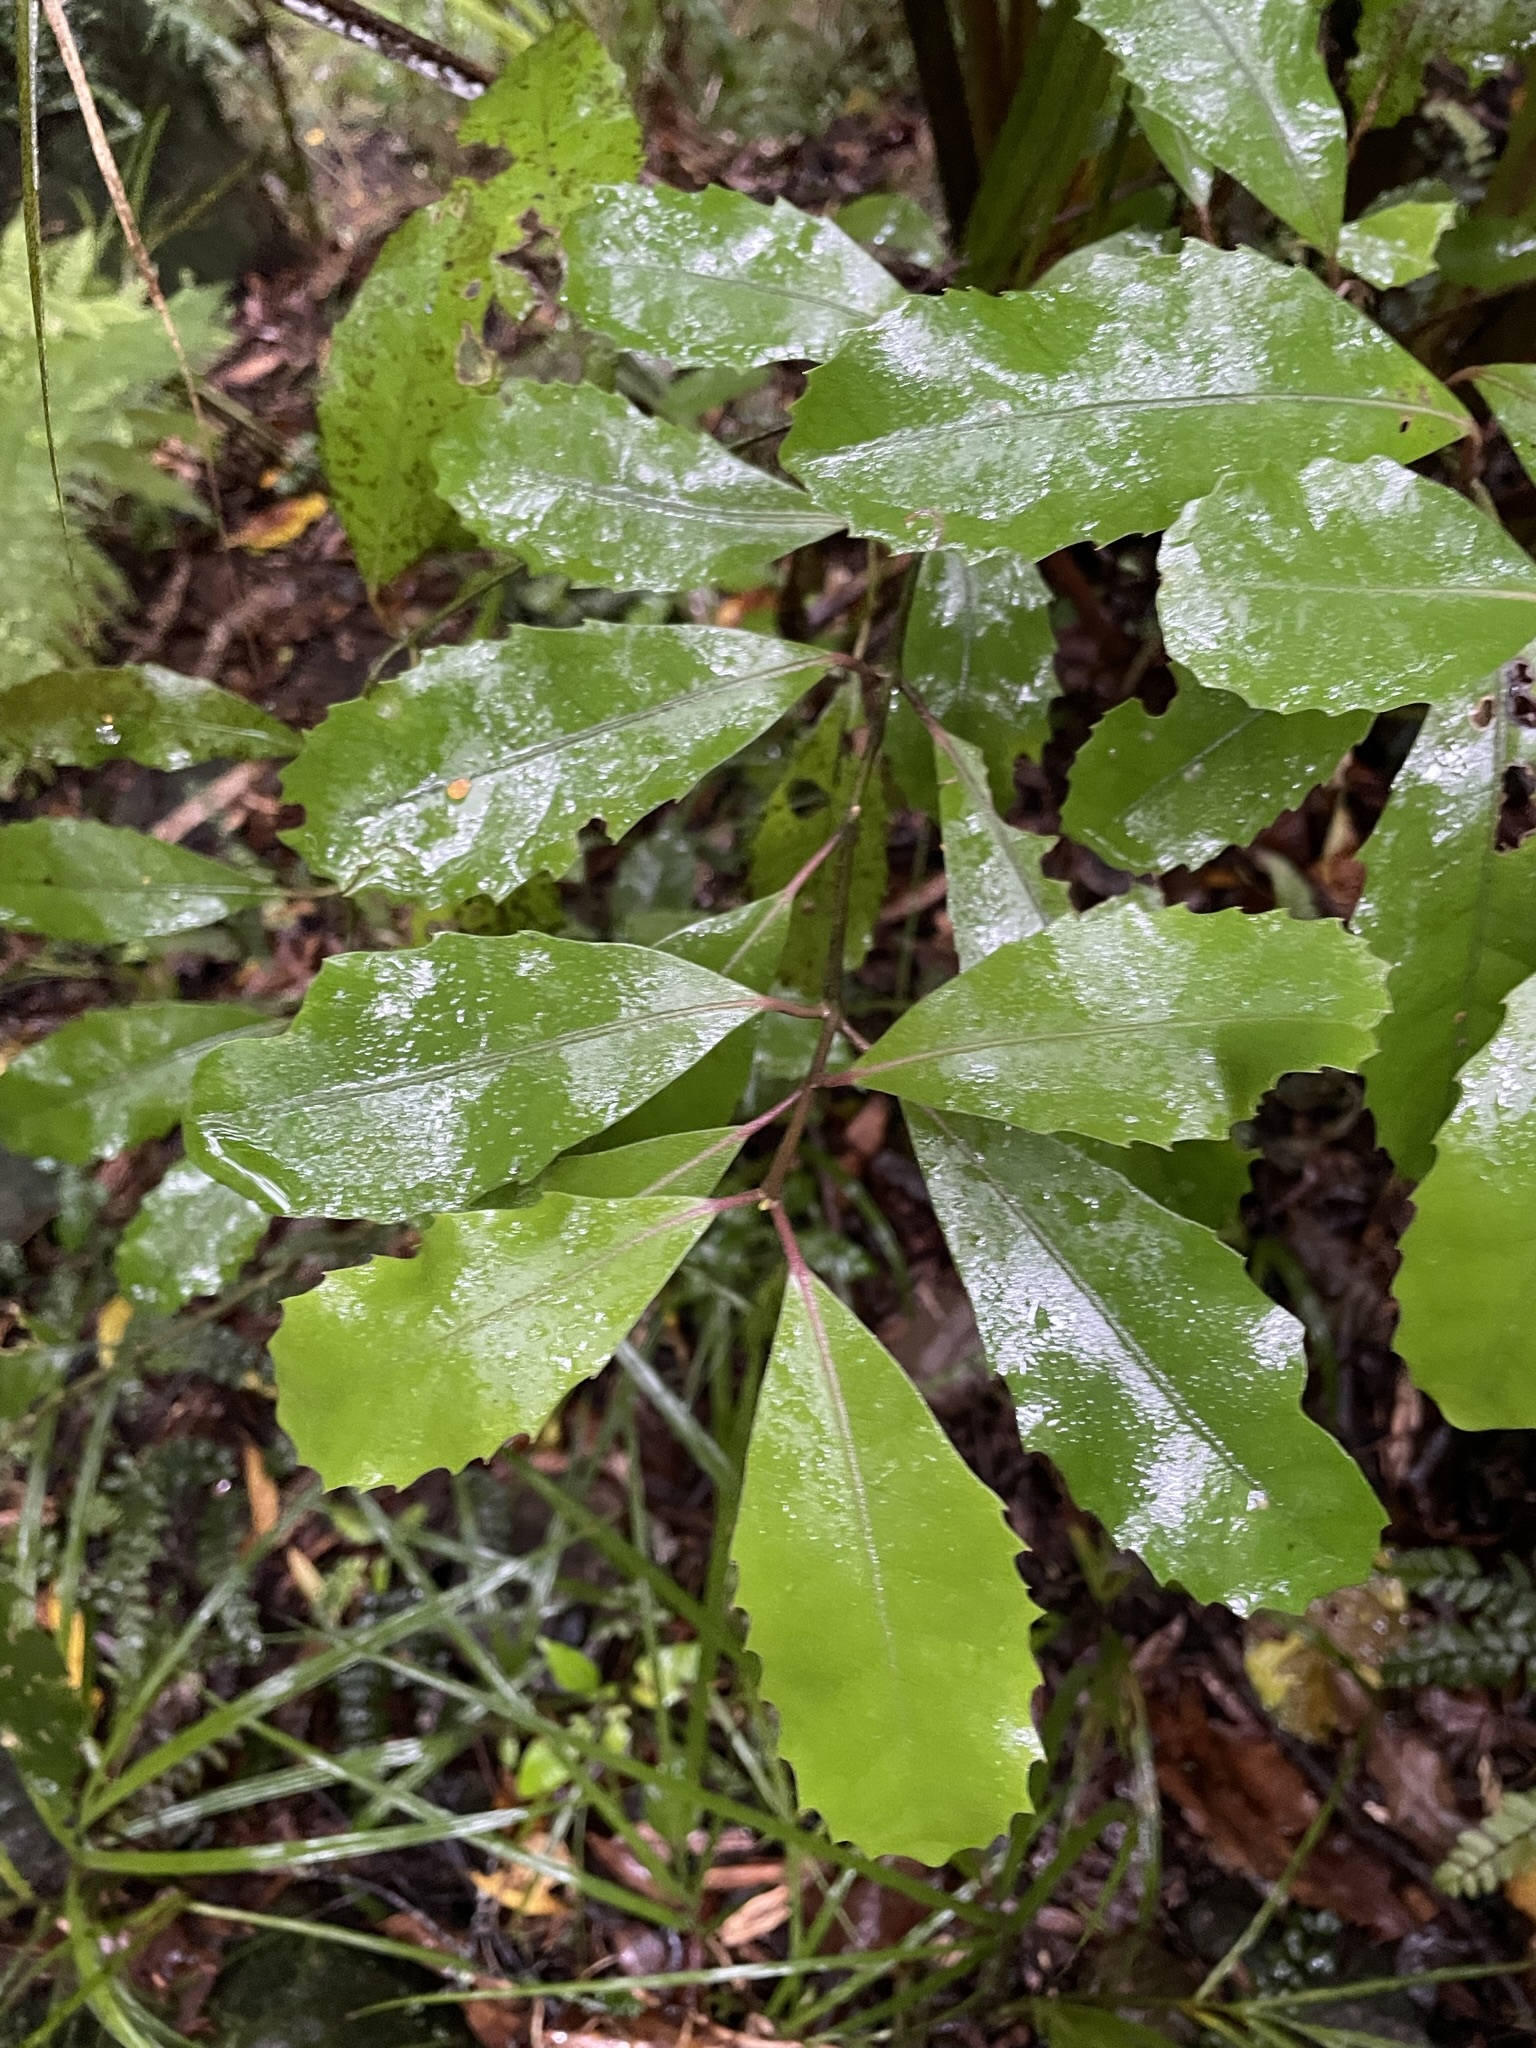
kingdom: Plantae
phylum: Tracheophyta
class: Magnoliopsida
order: Laurales
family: Monimiaceae
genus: Hedycarya
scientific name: Hedycarya arborea
